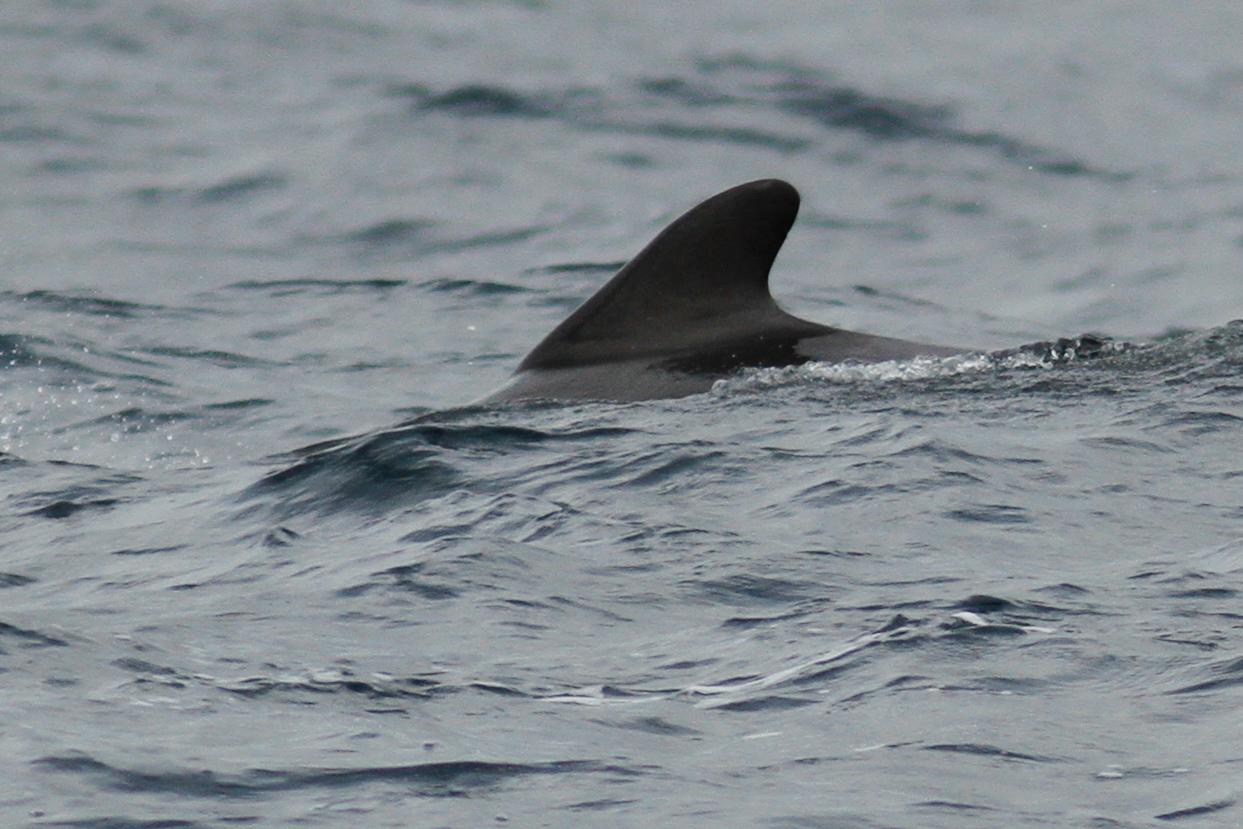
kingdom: Animalia
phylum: Chordata
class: Mammalia
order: Cetacea
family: Delphinidae
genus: Globicephala
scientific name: Globicephala melas
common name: Long-finned pilot whale
